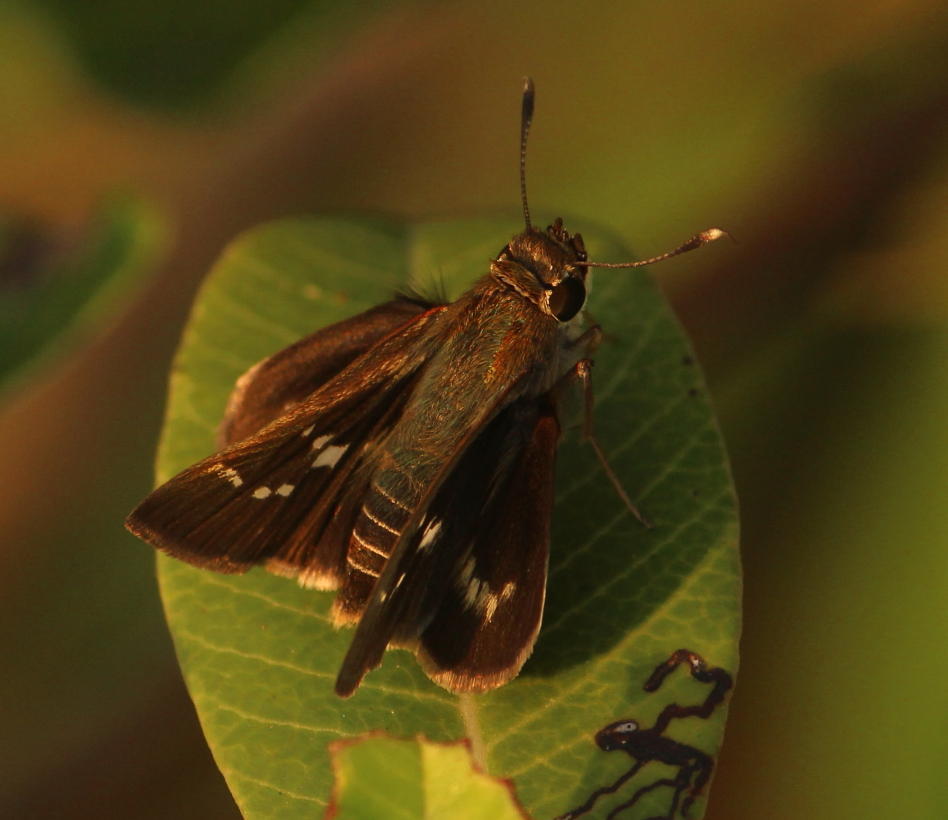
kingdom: Animalia
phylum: Arthropoda
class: Insecta
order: Lepidoptera
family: Hesperiidae
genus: Platylesches
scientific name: Platylesches neba
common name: Flower-girl hopper
